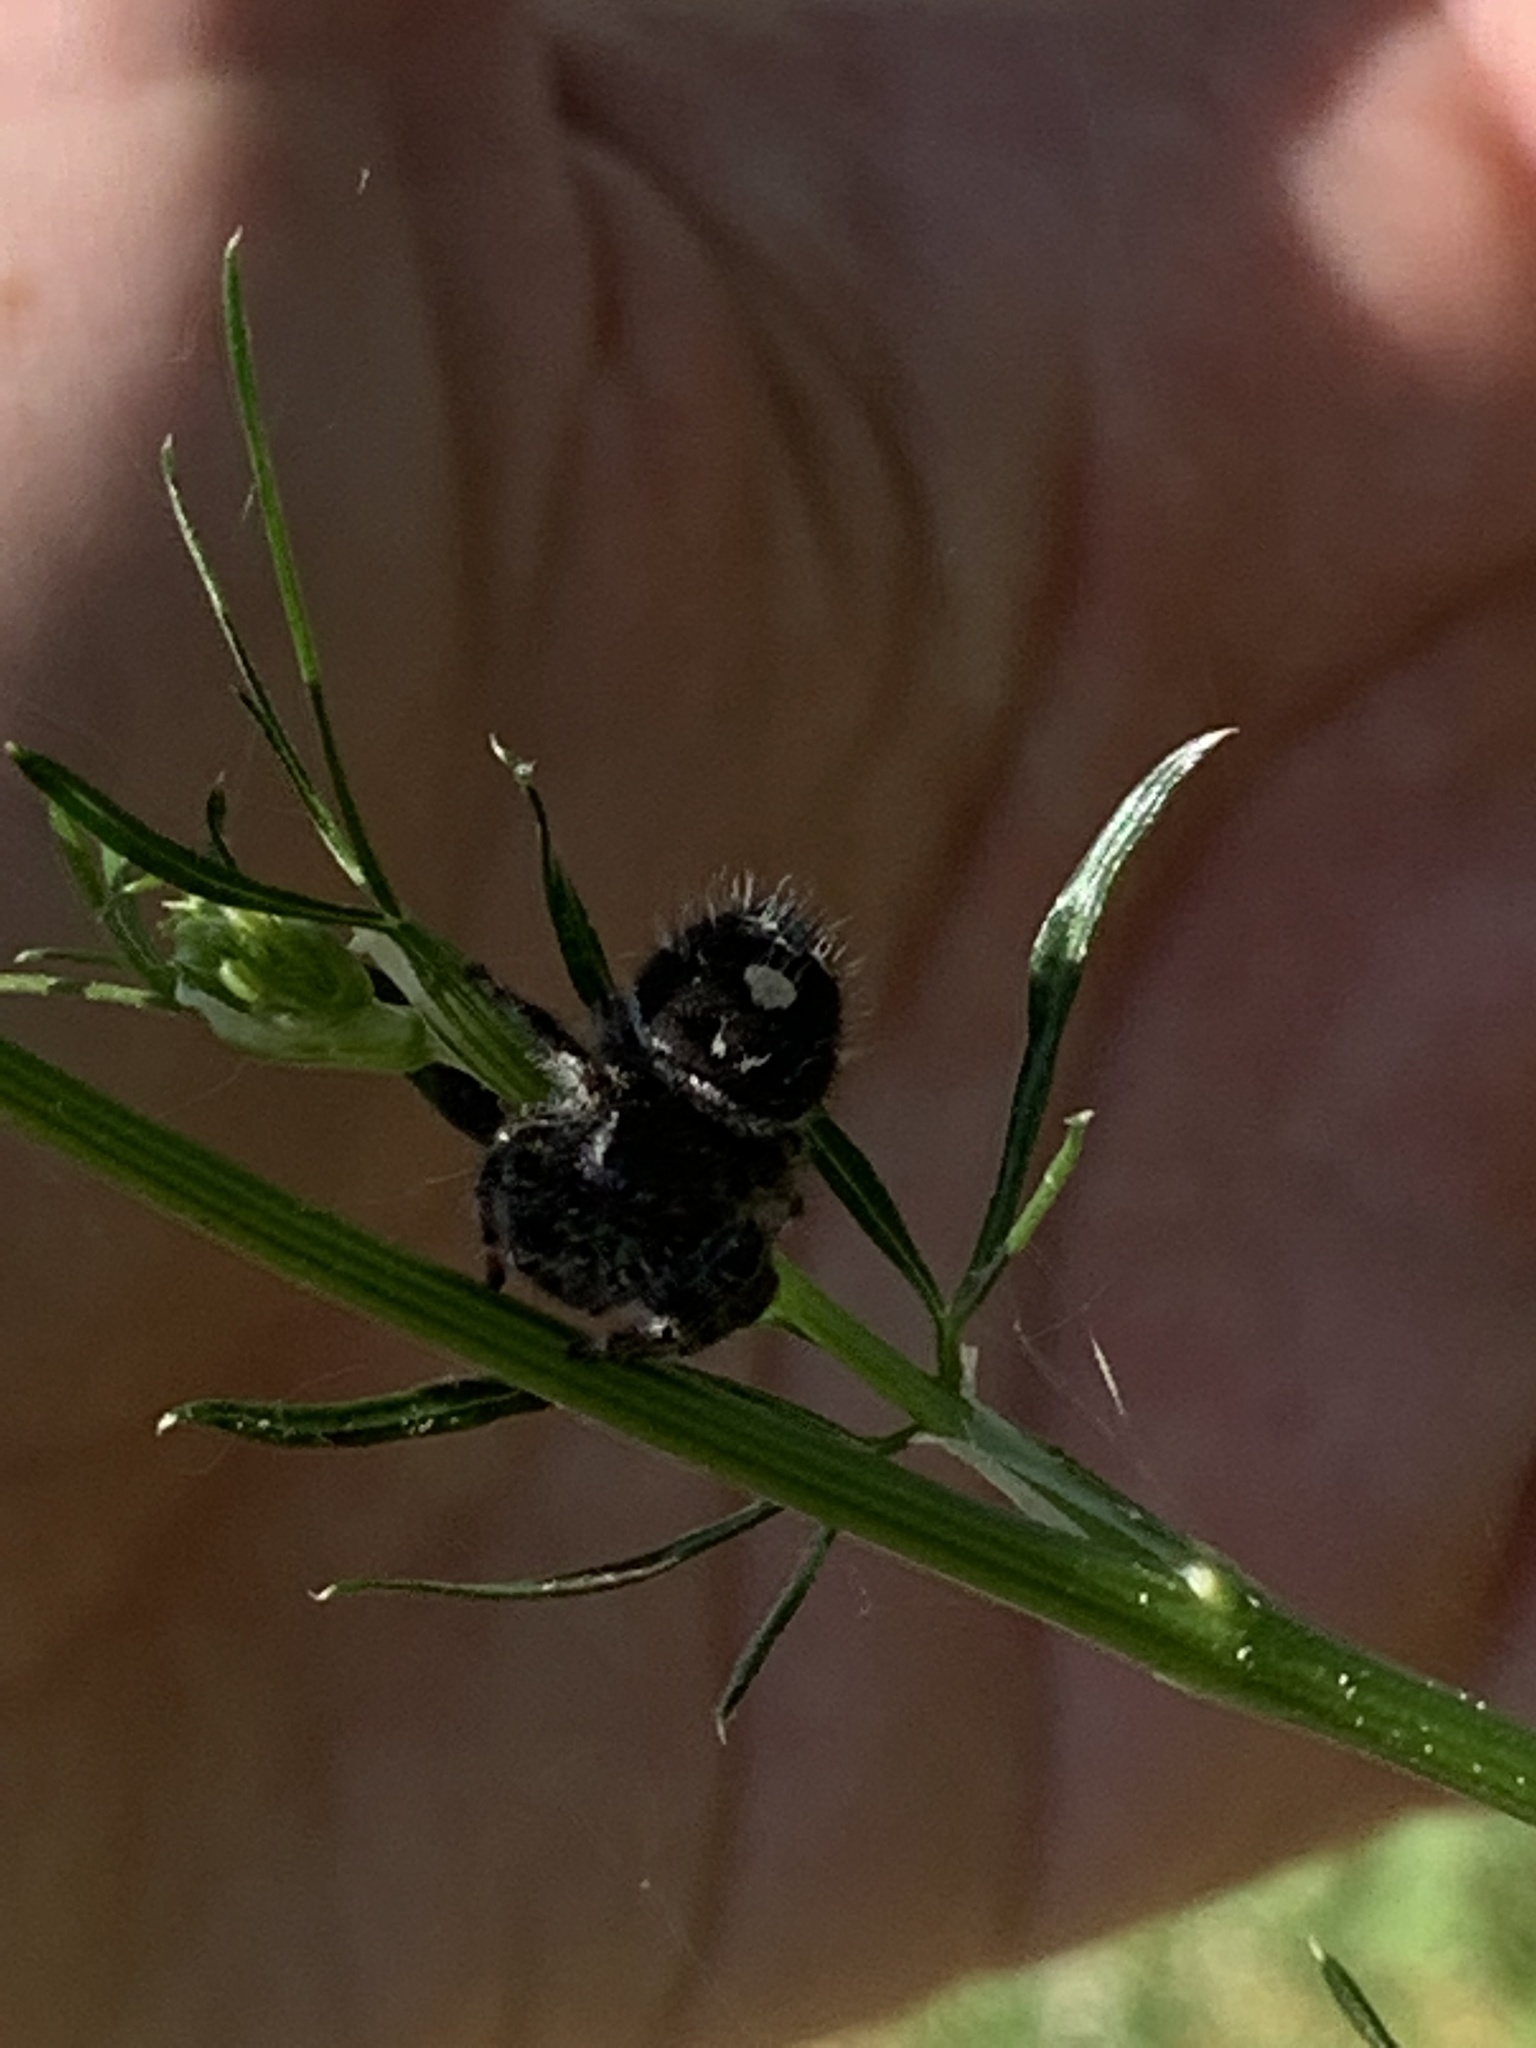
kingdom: Animalia
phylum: Arthropoda
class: Arachnida
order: Araneae
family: Salticidae
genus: Phidippus
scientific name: Phidippus audax
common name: Bold jumper
